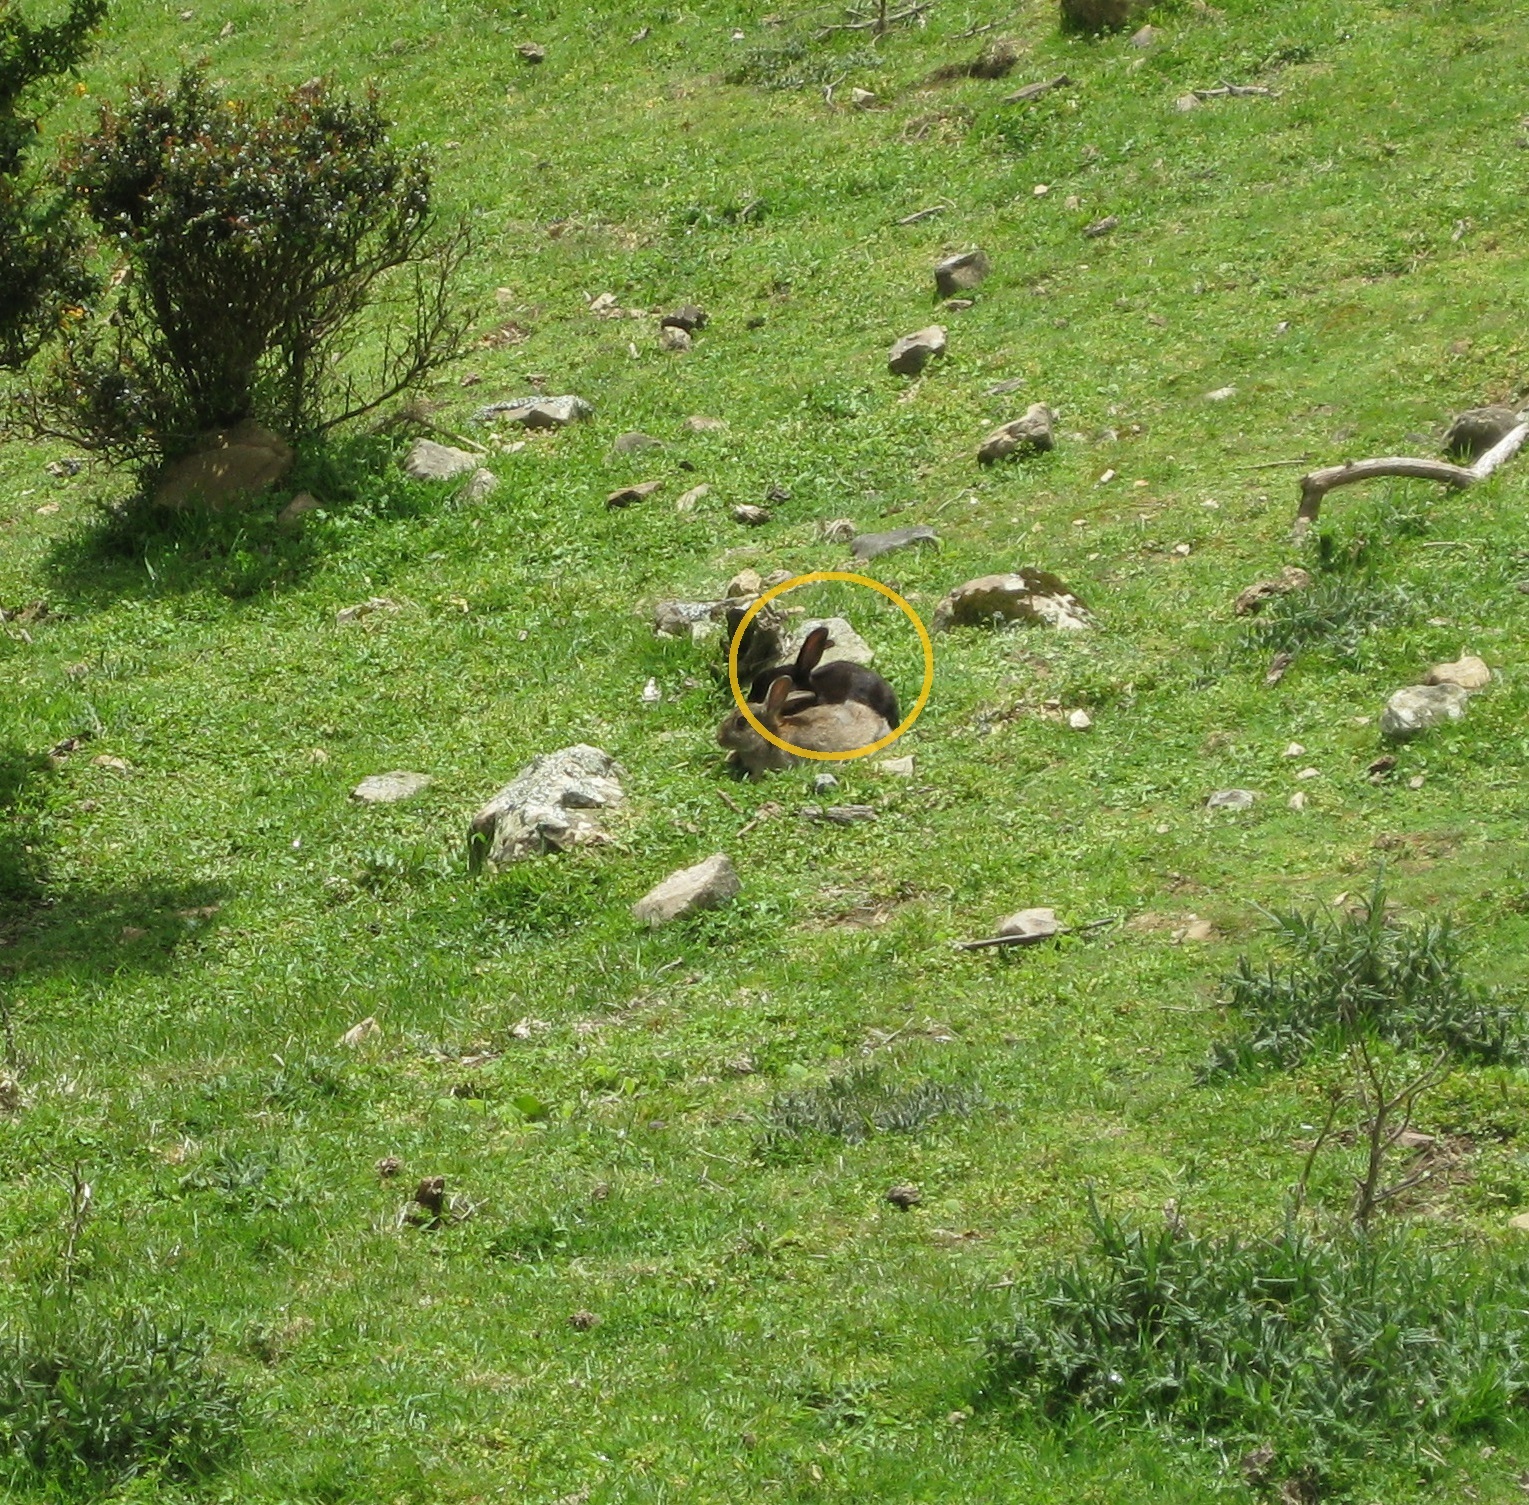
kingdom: Animalia
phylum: Chordata
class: Mammalia
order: Lagomorpha
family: Leporidae
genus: Oryctolagus
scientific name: Oryctolagus cuniculus
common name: European rabbit
